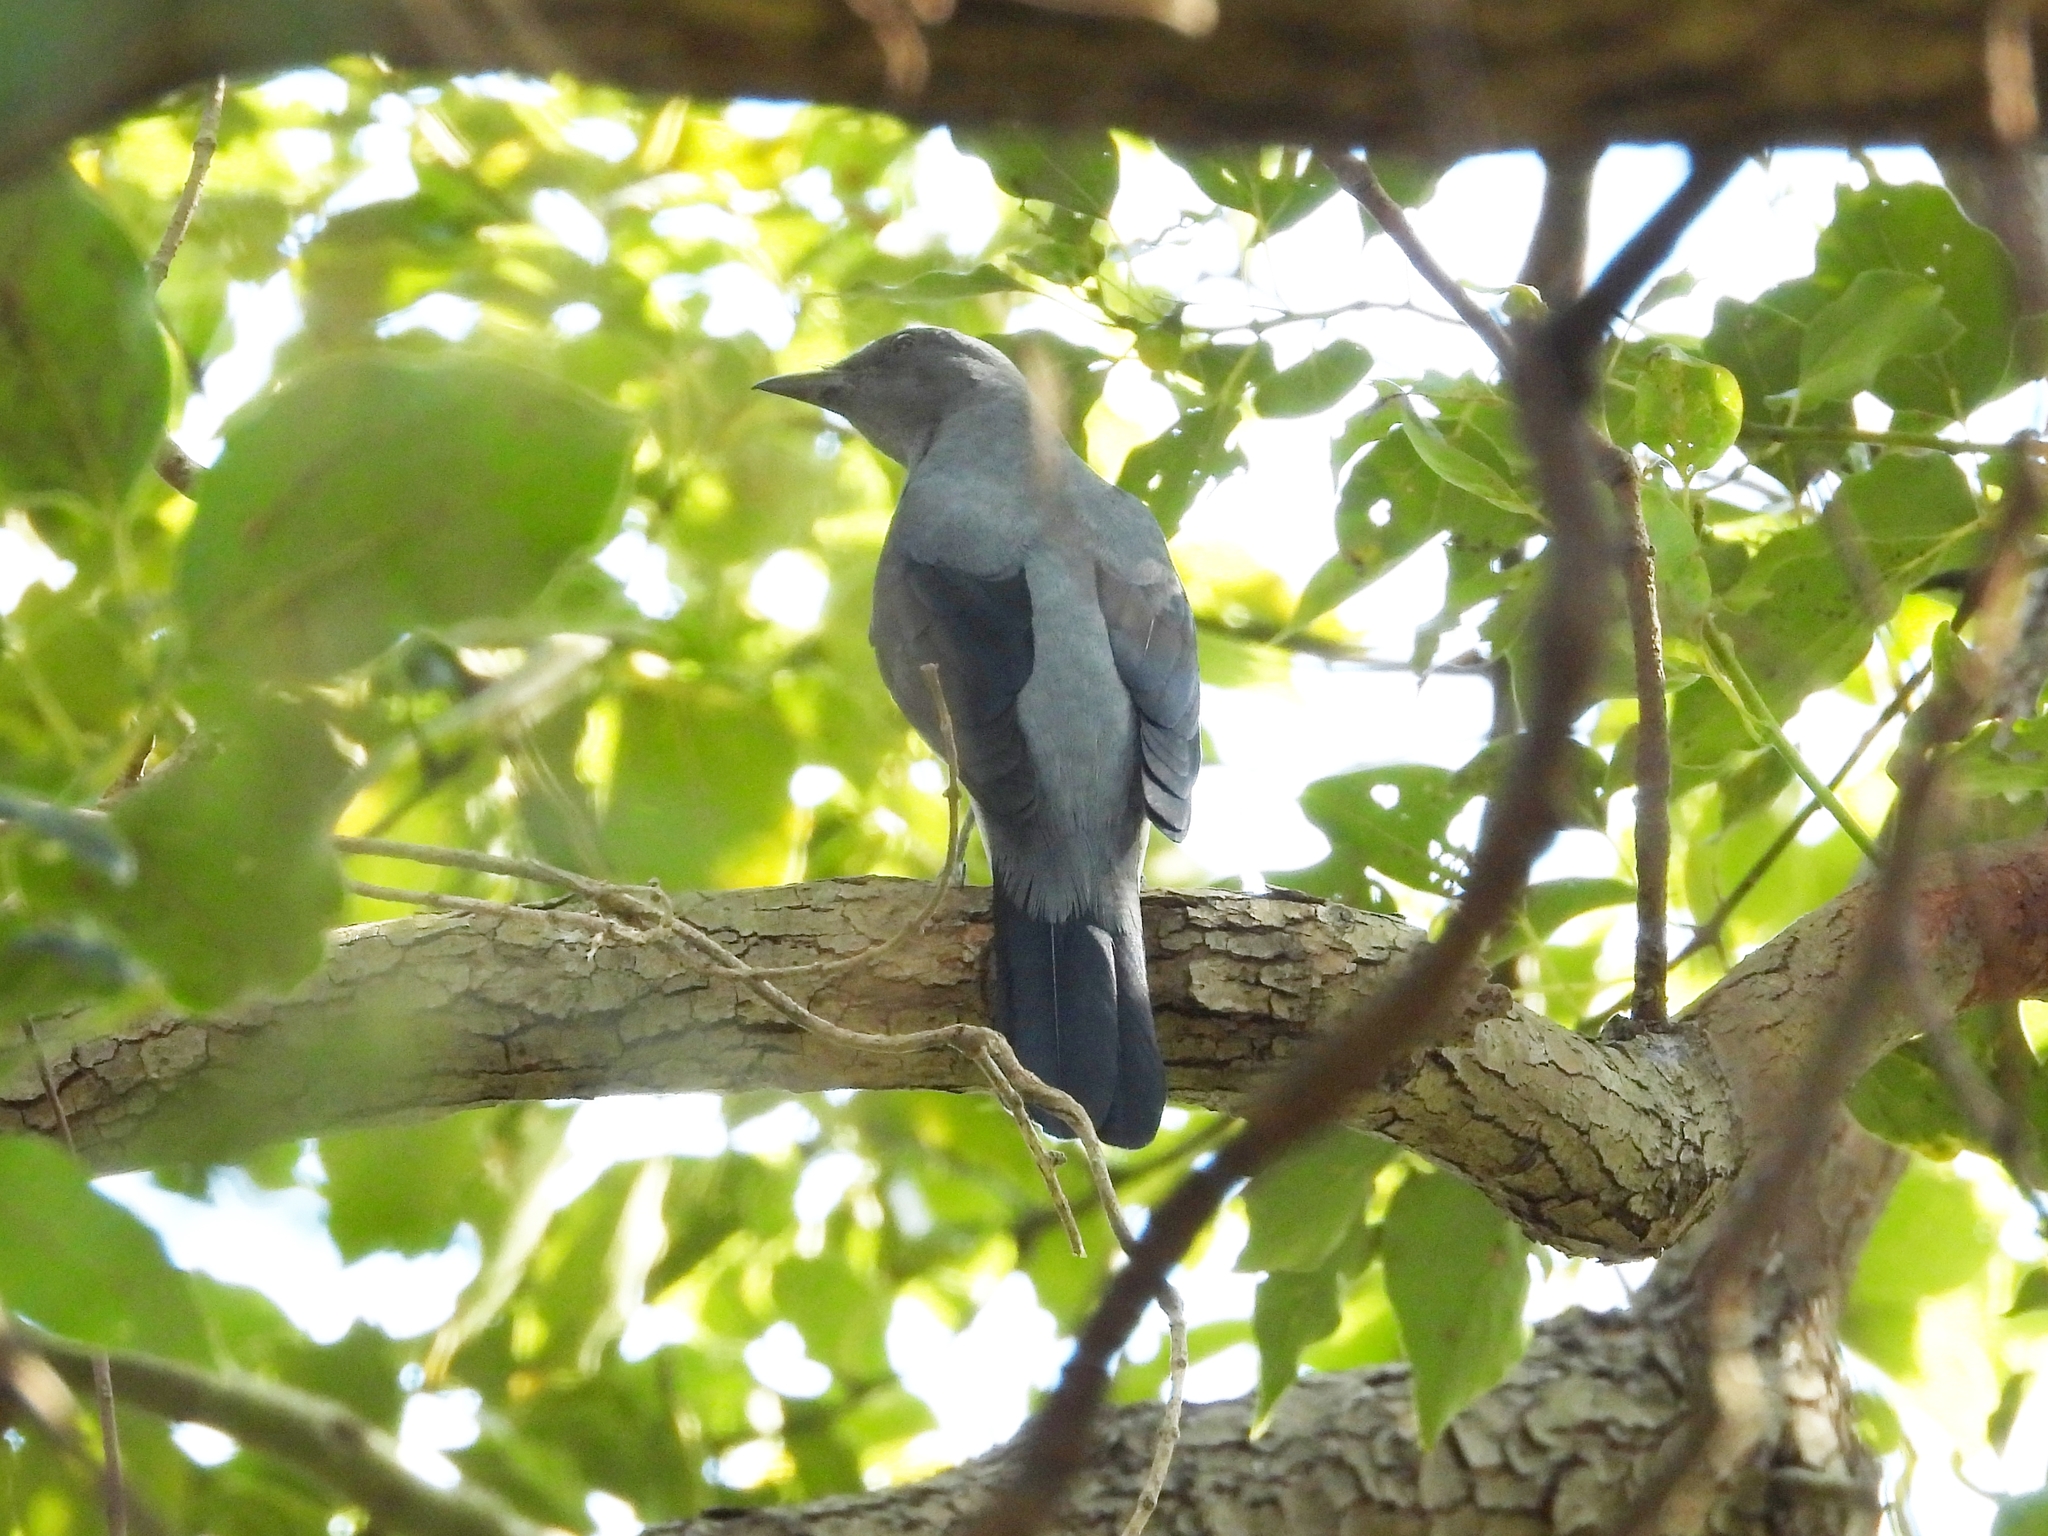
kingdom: Animalia
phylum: Chordata
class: Aves
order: Passeriformes
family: Campephagidae
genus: Coracina
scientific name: Coracina melaschistos
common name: Black-winged cuckooshrike
